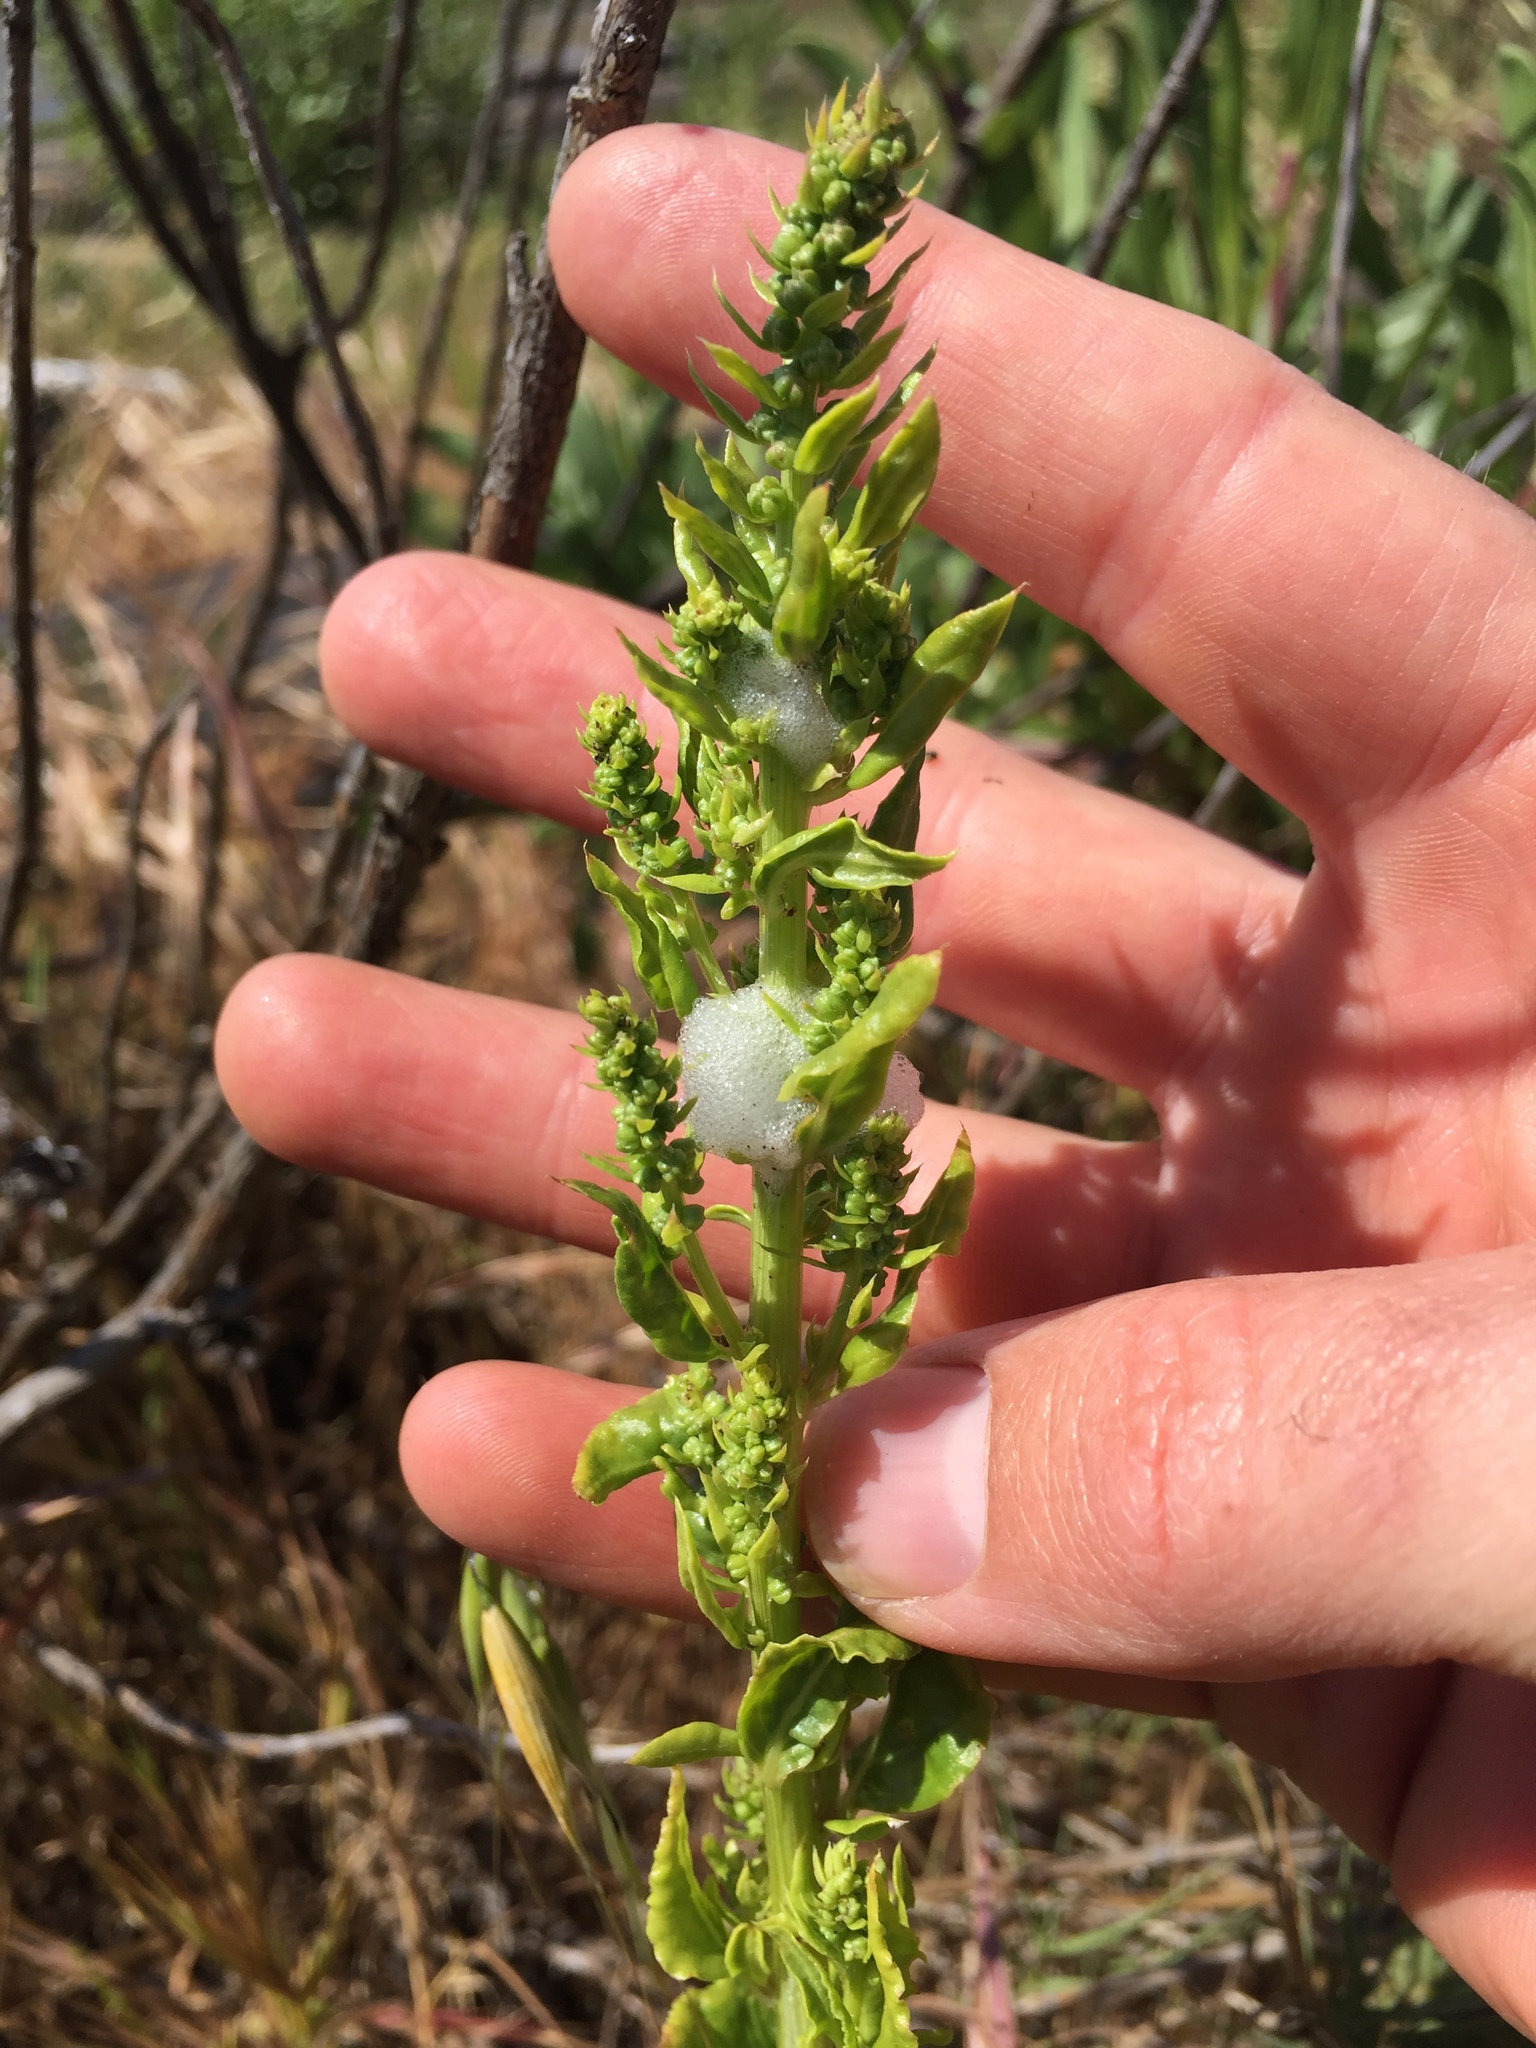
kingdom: Plantae
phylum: Tracheophyta
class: Magnoliopsida
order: Caryophyllales
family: Amaranthaceae
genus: Beta
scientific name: Beta vulgaris
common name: Beet
